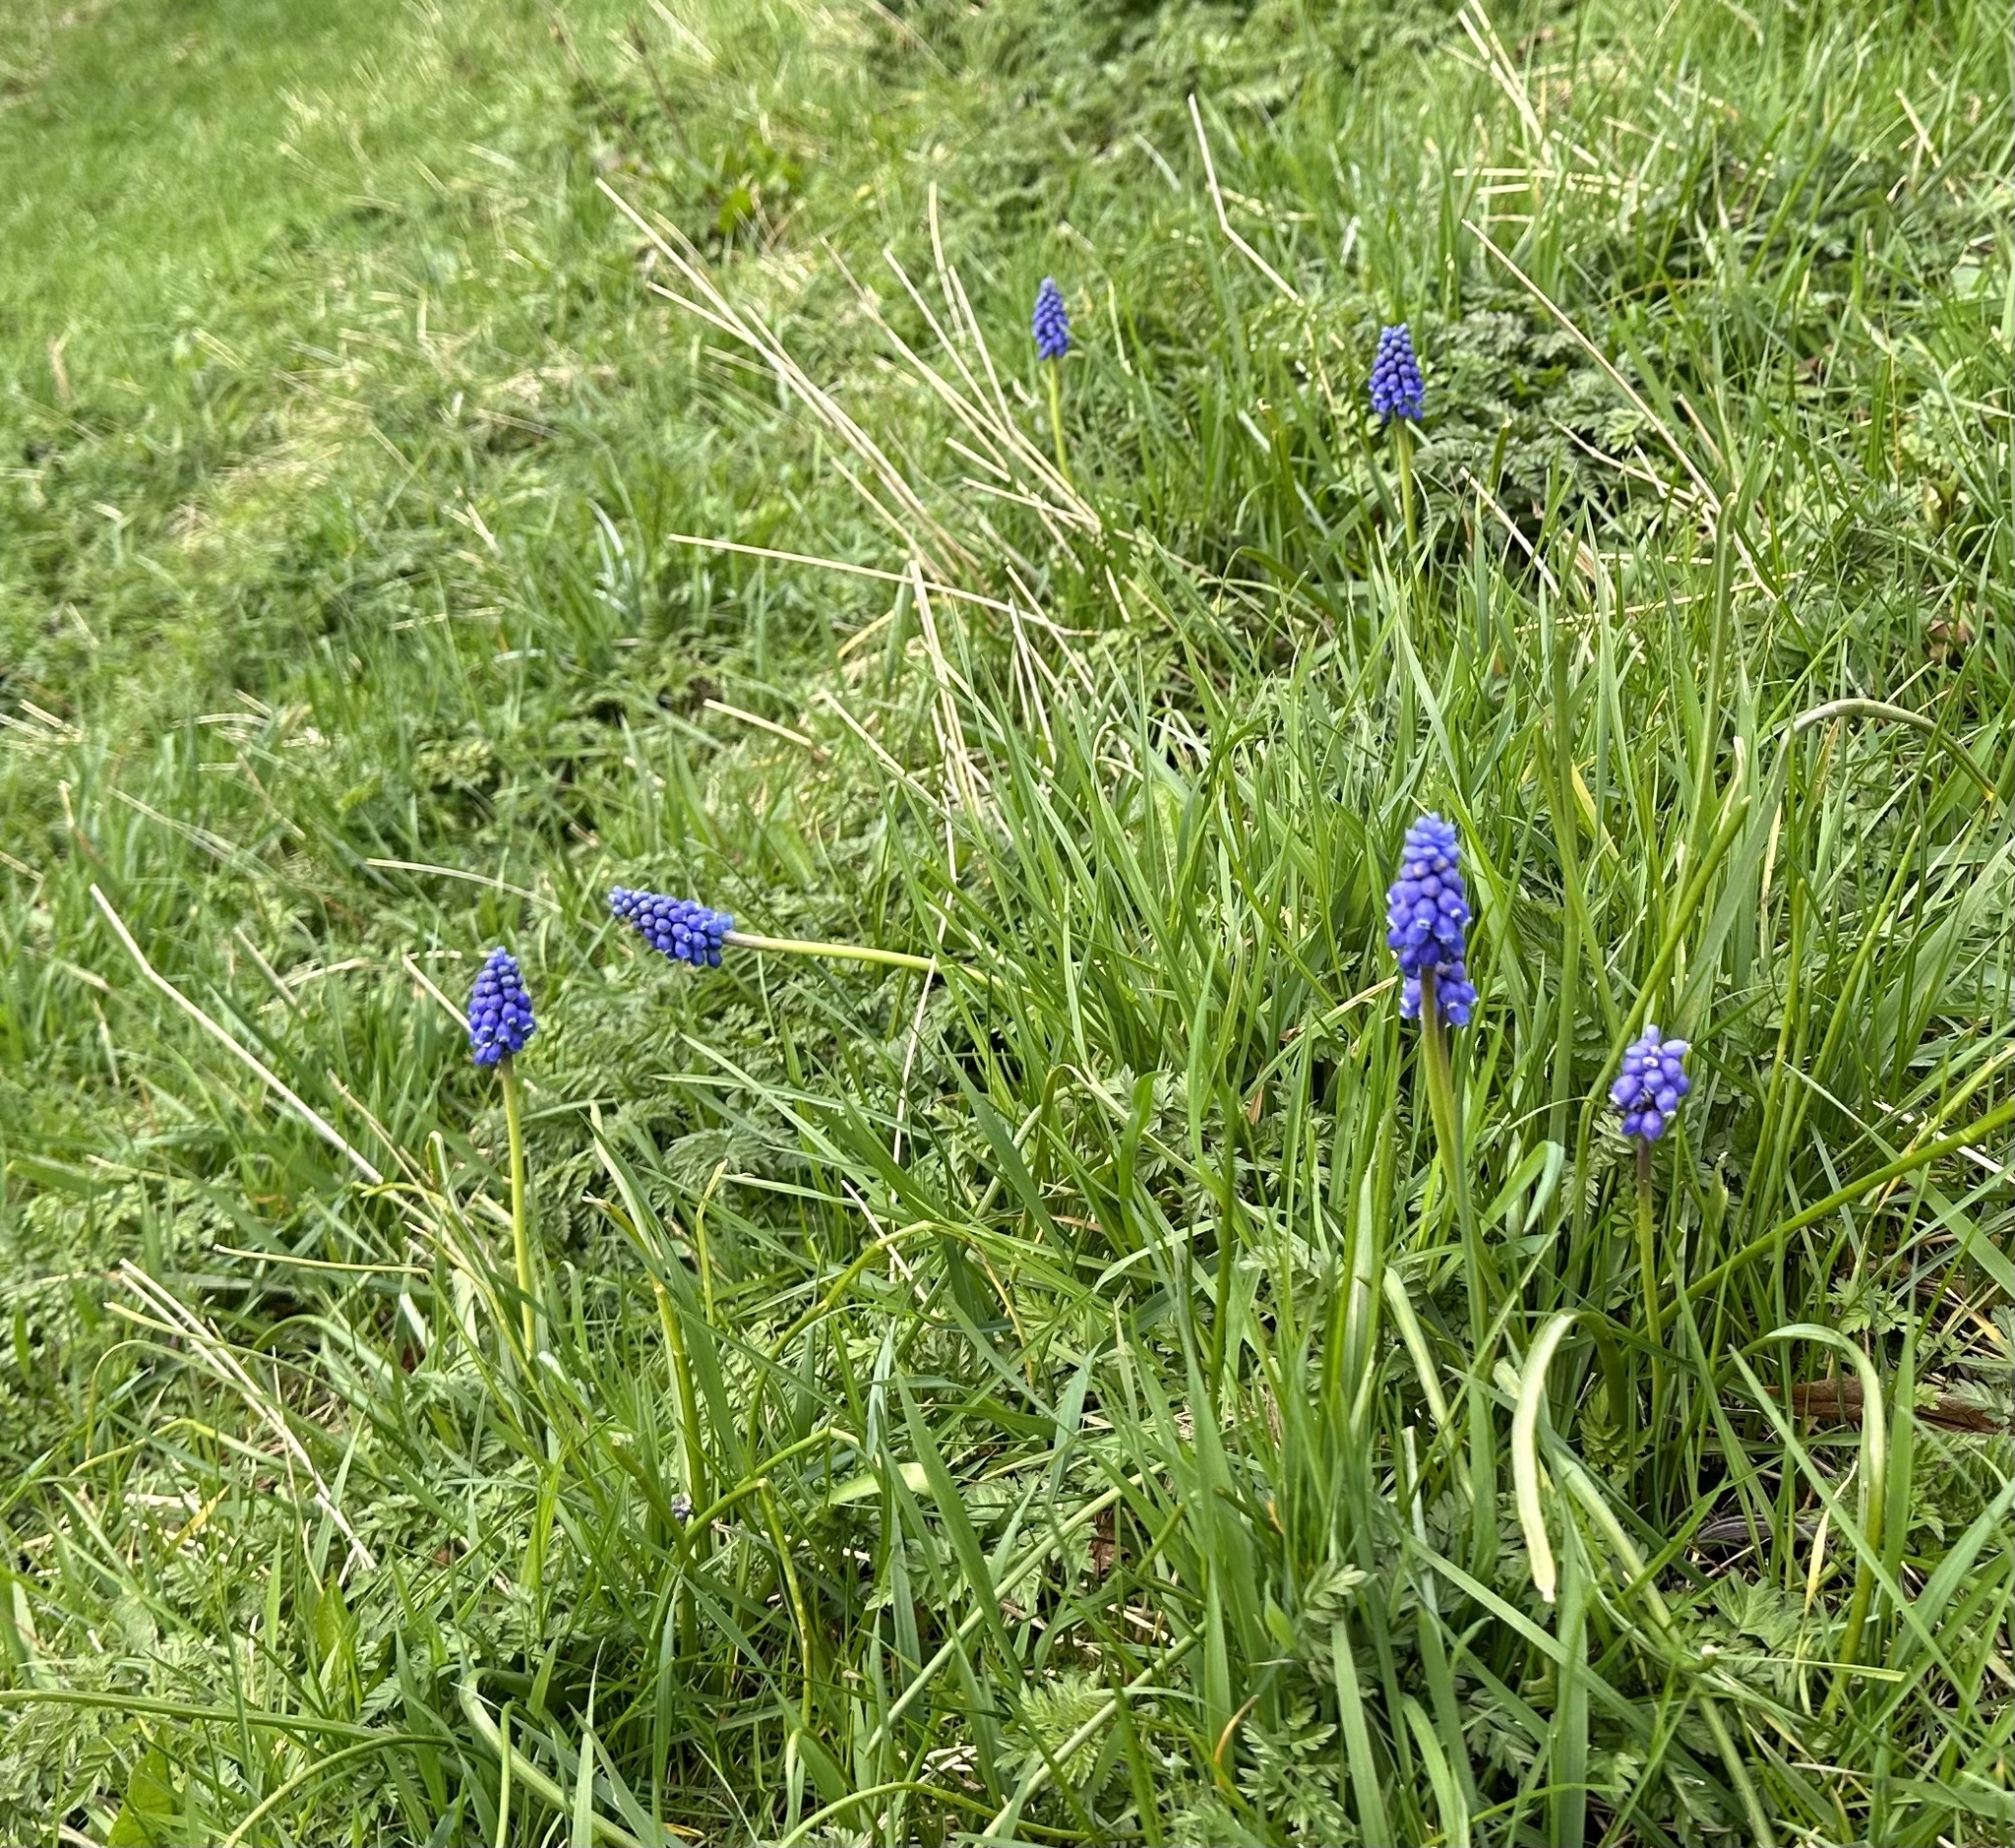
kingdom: Plantae
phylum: Tracheophyta
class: Liliopsida
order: Asparagales
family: Asparagaceae
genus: Muscari
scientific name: Muscari armeniacum
